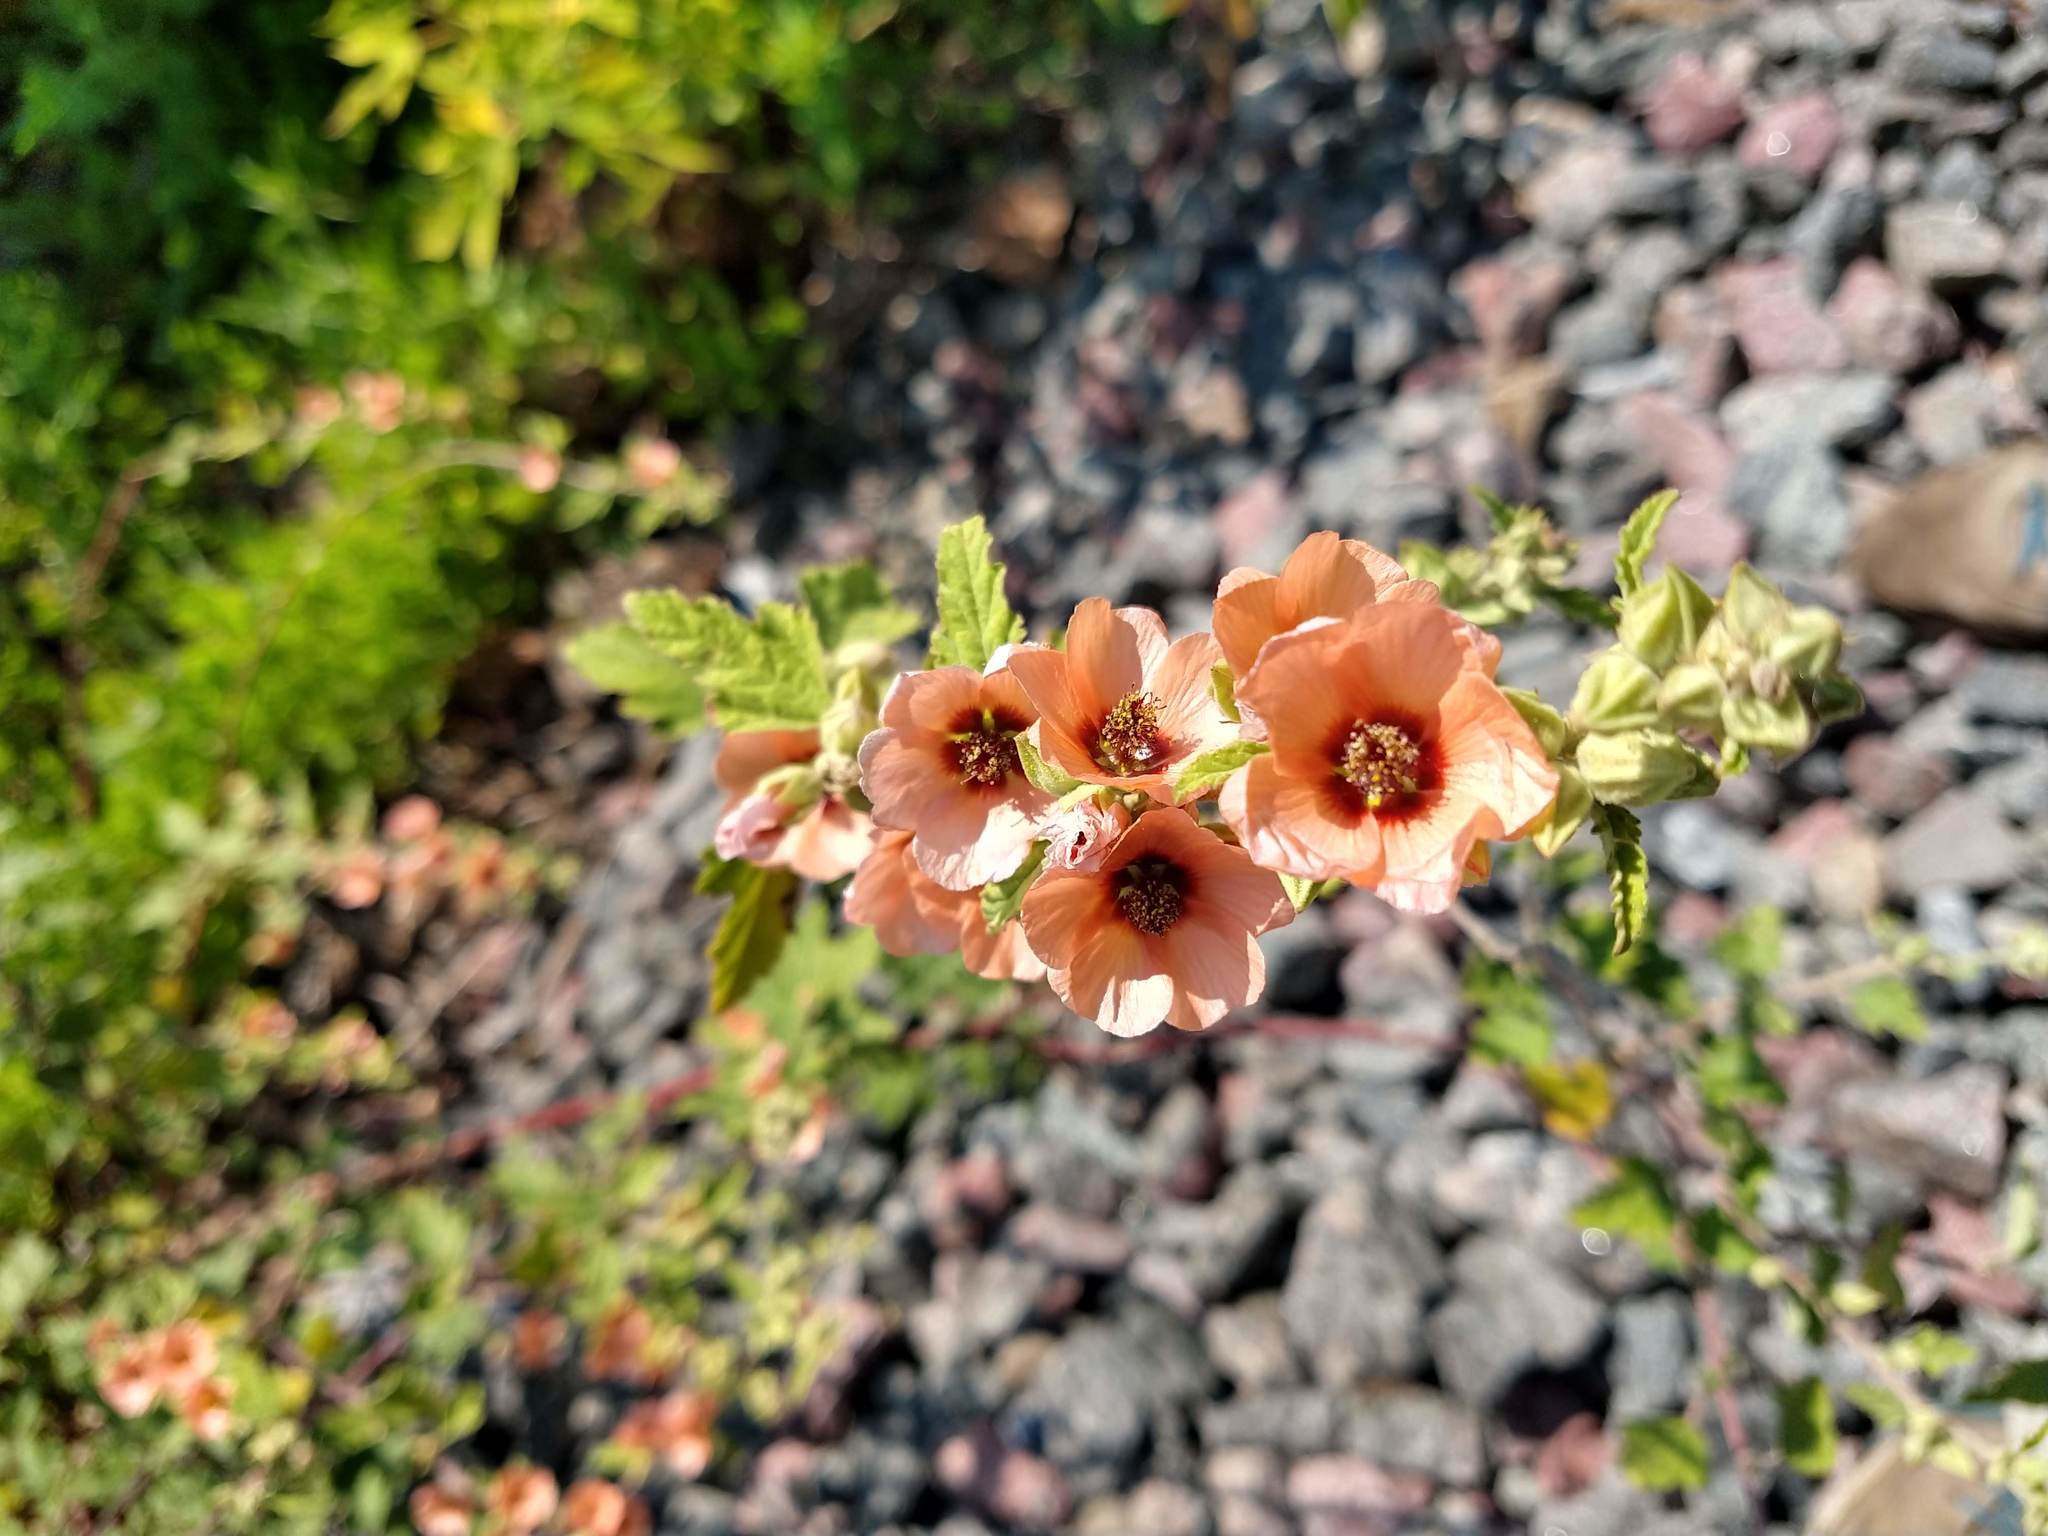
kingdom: Plantae
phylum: Tracheophyta
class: Magnoliopsida
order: Malvales
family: Malvaceae
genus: Sphaeralcea
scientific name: Sphaeralcea bonariensis
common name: Latin globemallow
